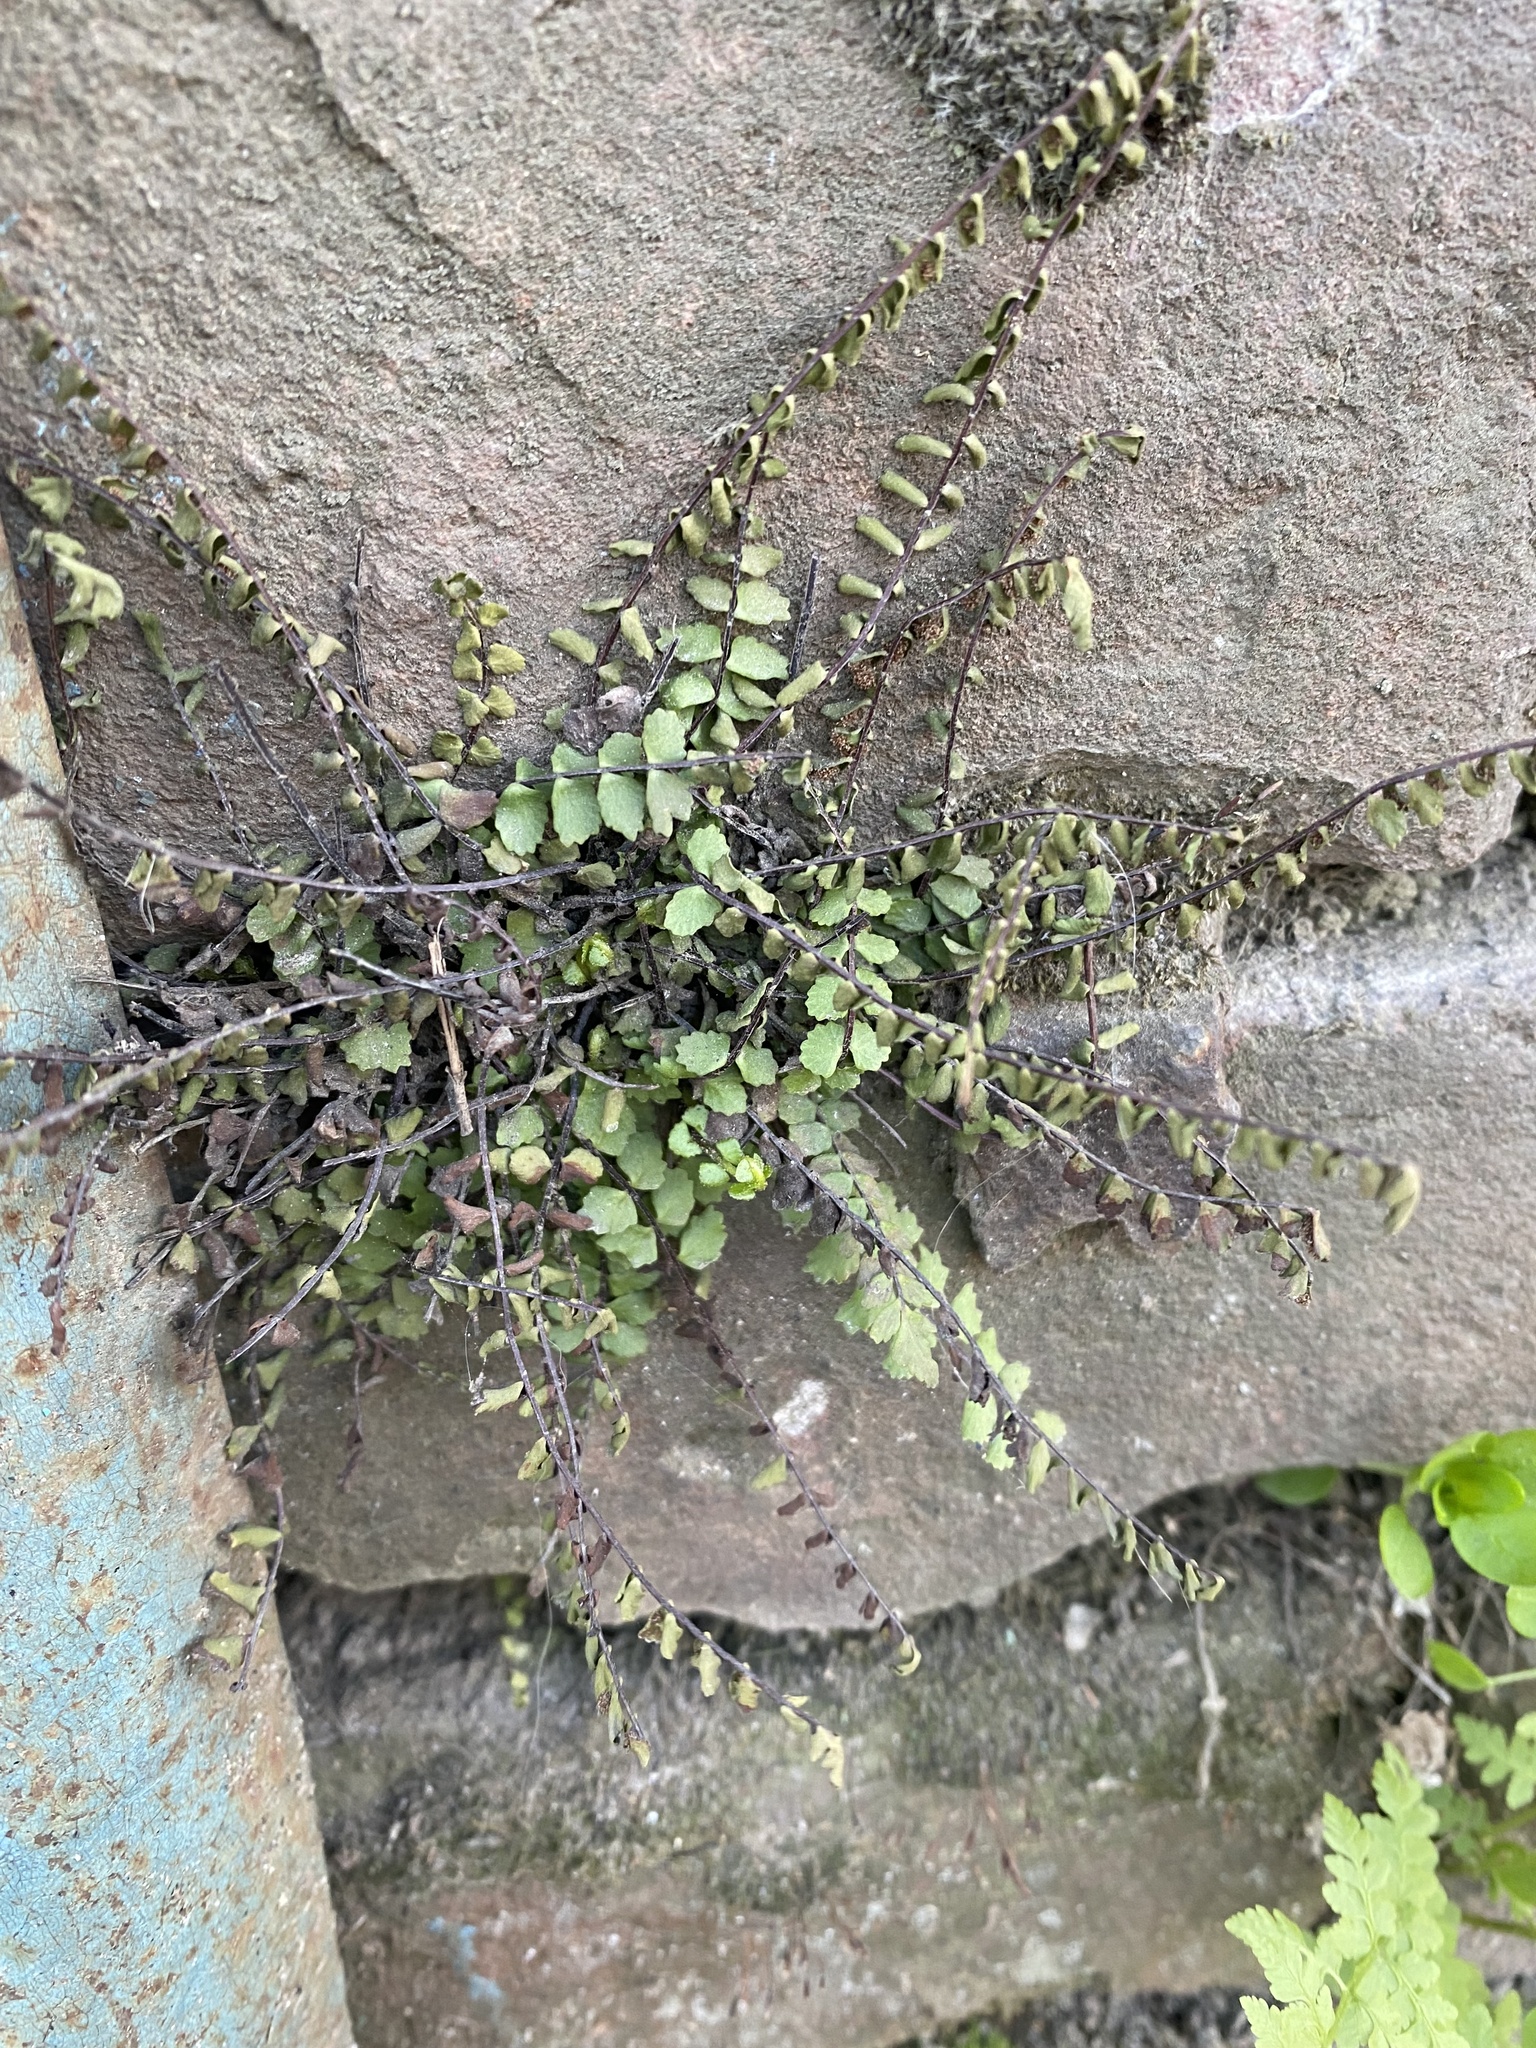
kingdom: Plantae
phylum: Tracheophyta
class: Polypodiopsida
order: Polypodiales
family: Aspleniaceae
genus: Asplenium
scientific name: Asplenium trichomanes
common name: Maidenhair spleenwort
